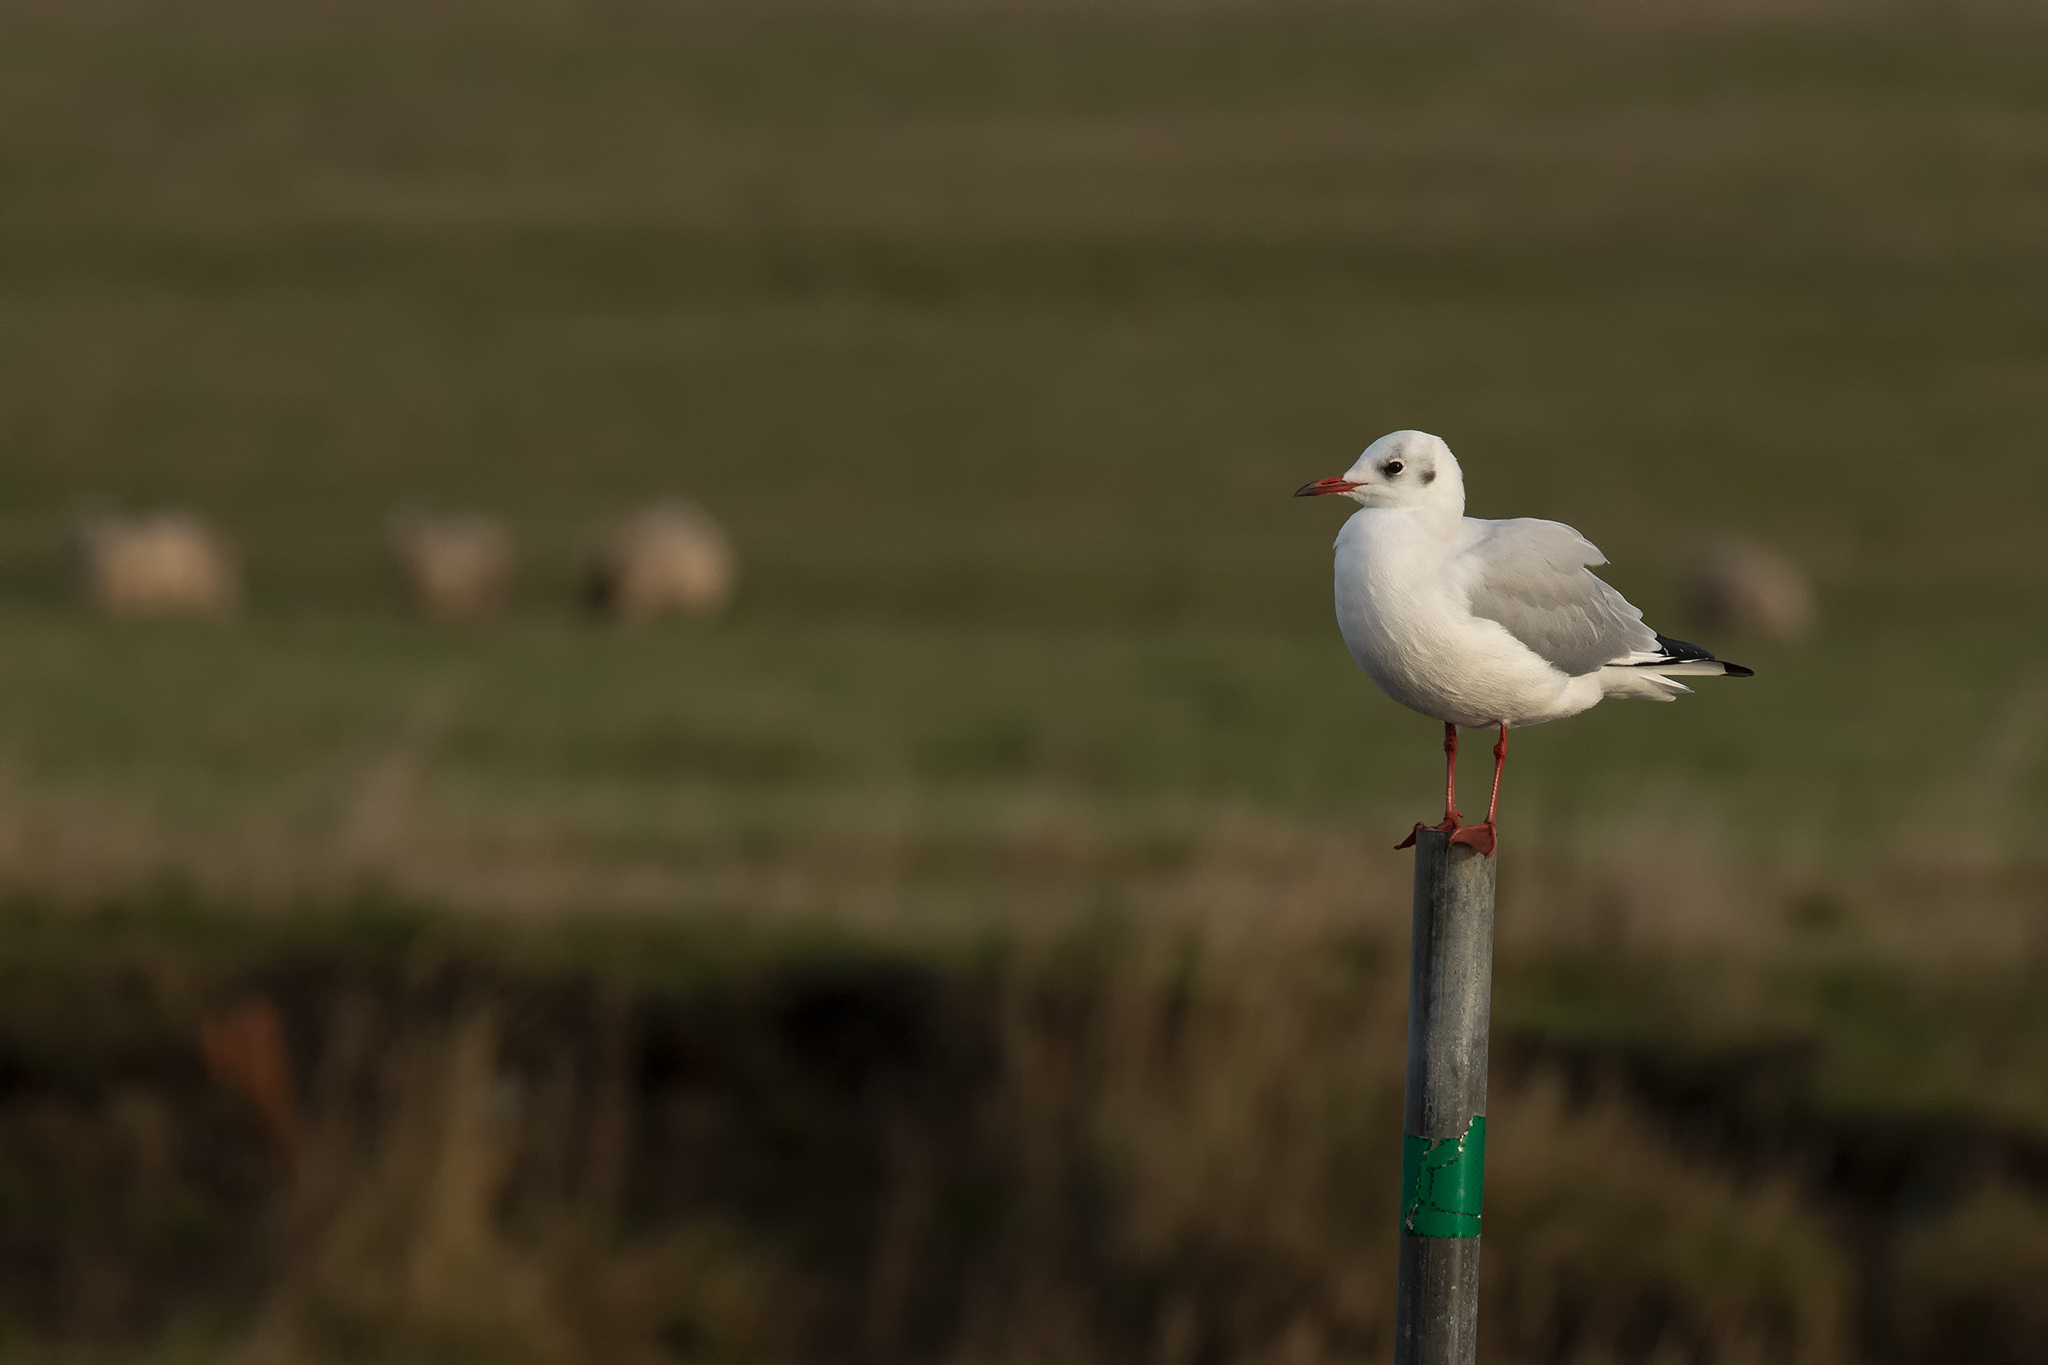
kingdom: Animalia
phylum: Chordata
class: Aves
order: Charadriiformes
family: Laridae
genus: Chroicocephalus
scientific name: Chroicocephalus ridibundus
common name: Black-headed gull
